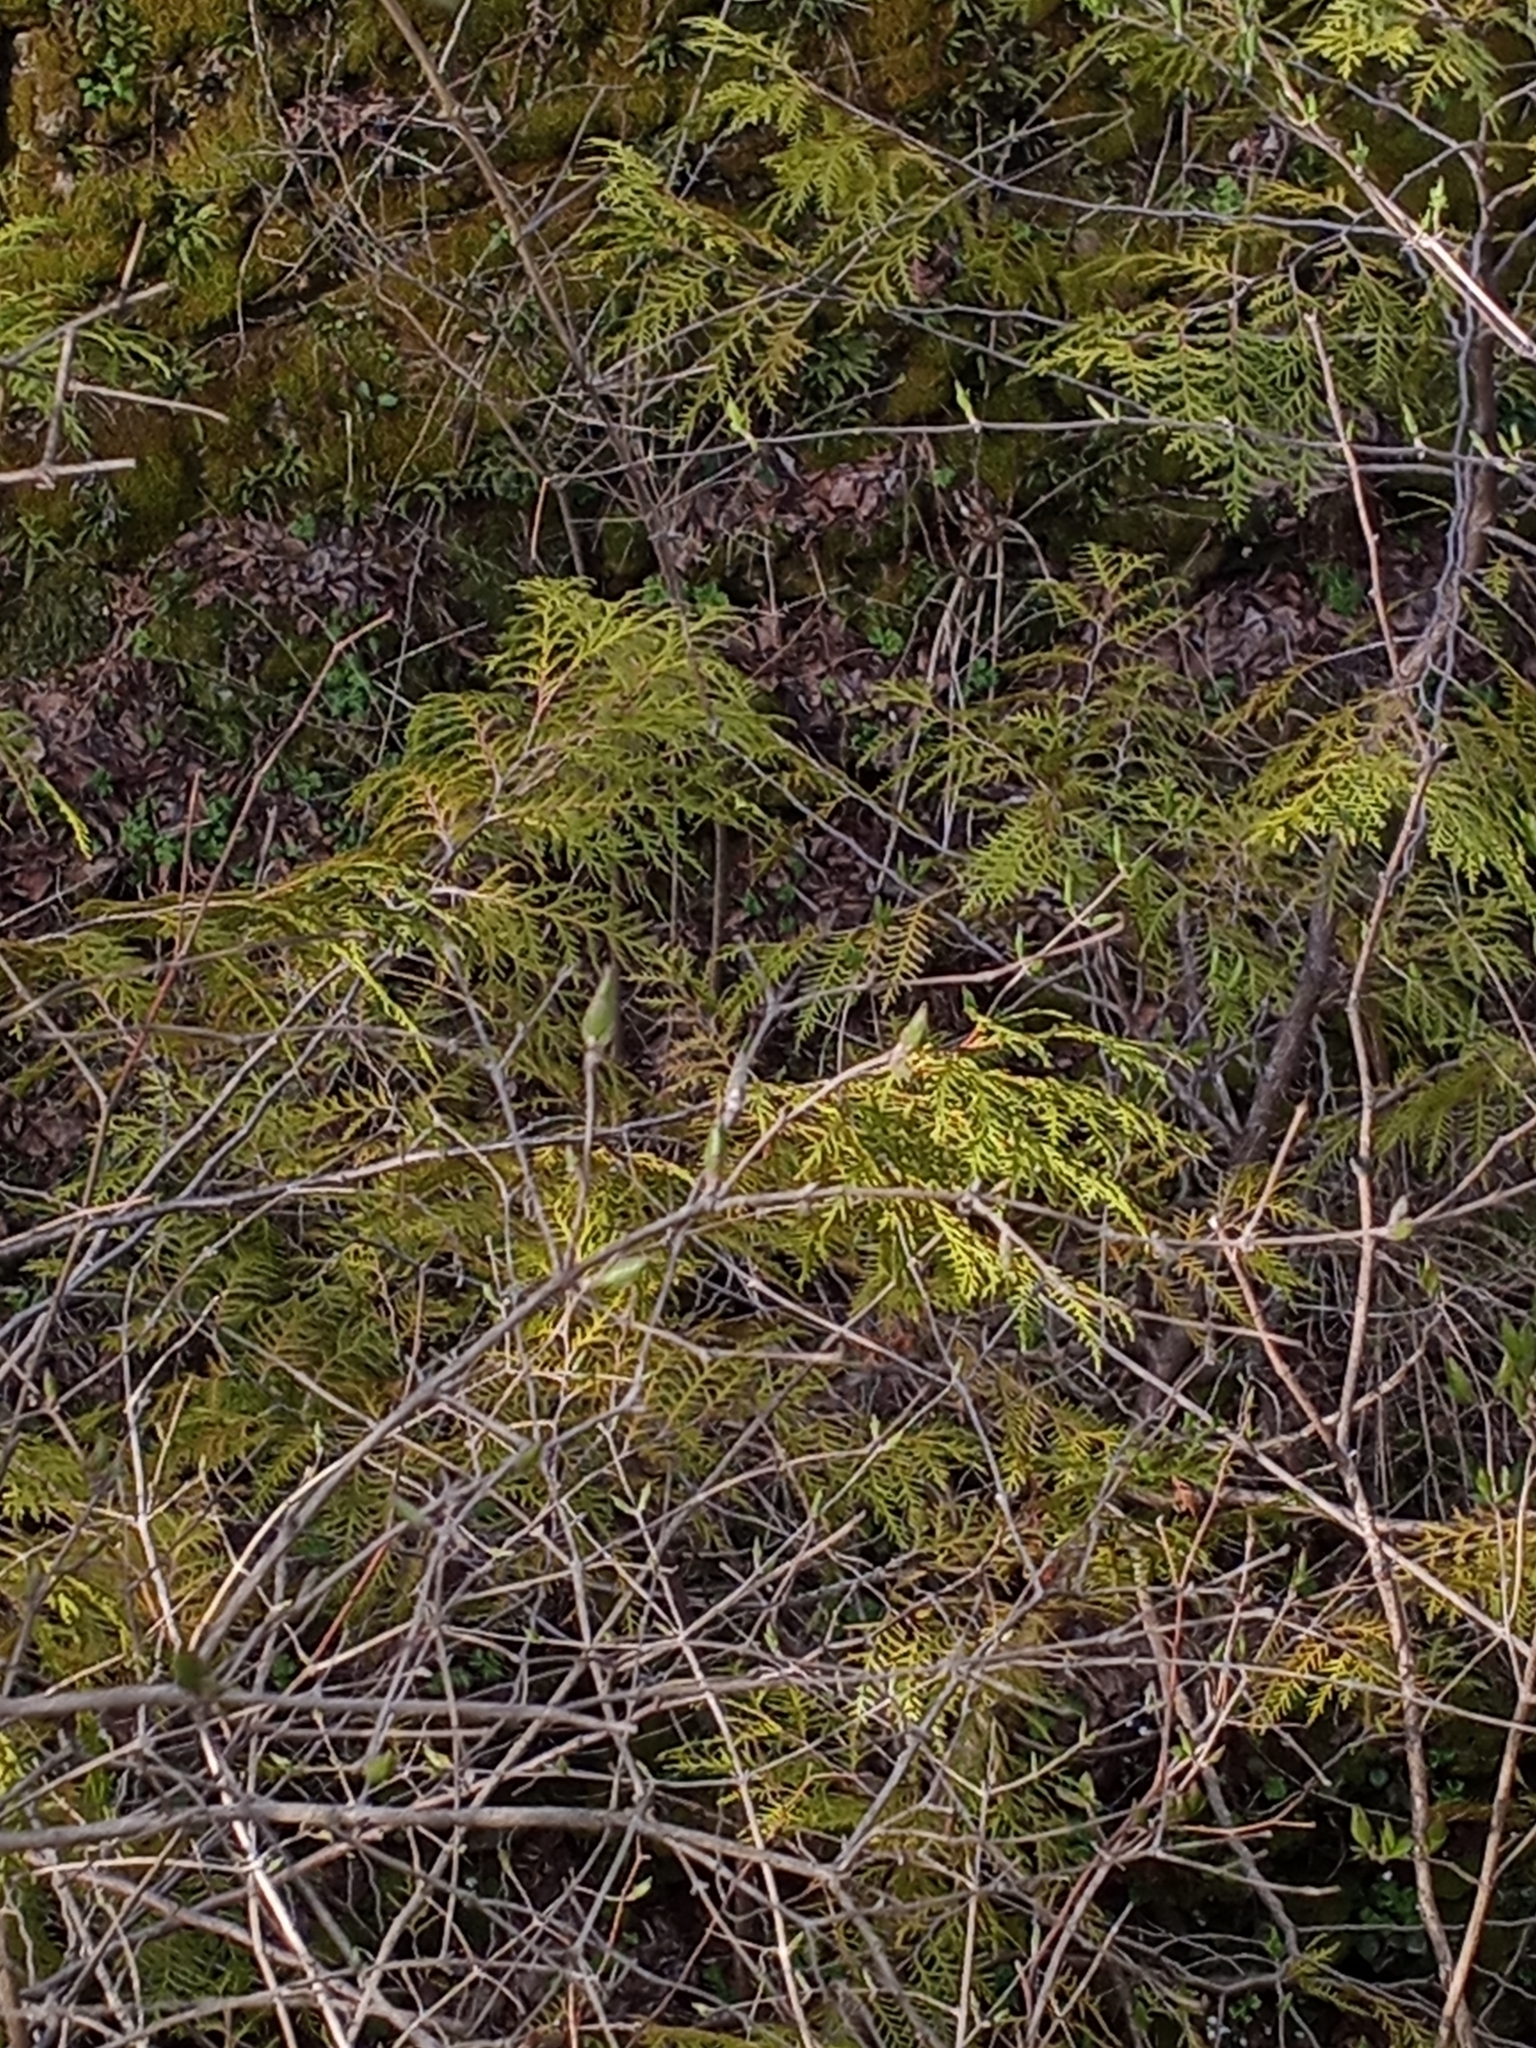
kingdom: Plantae
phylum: Tracheophyta
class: Pinopsida
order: Pinales
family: Cupressaceae
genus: Thuja
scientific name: Thuja occidentalis
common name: Northern white-cedar
